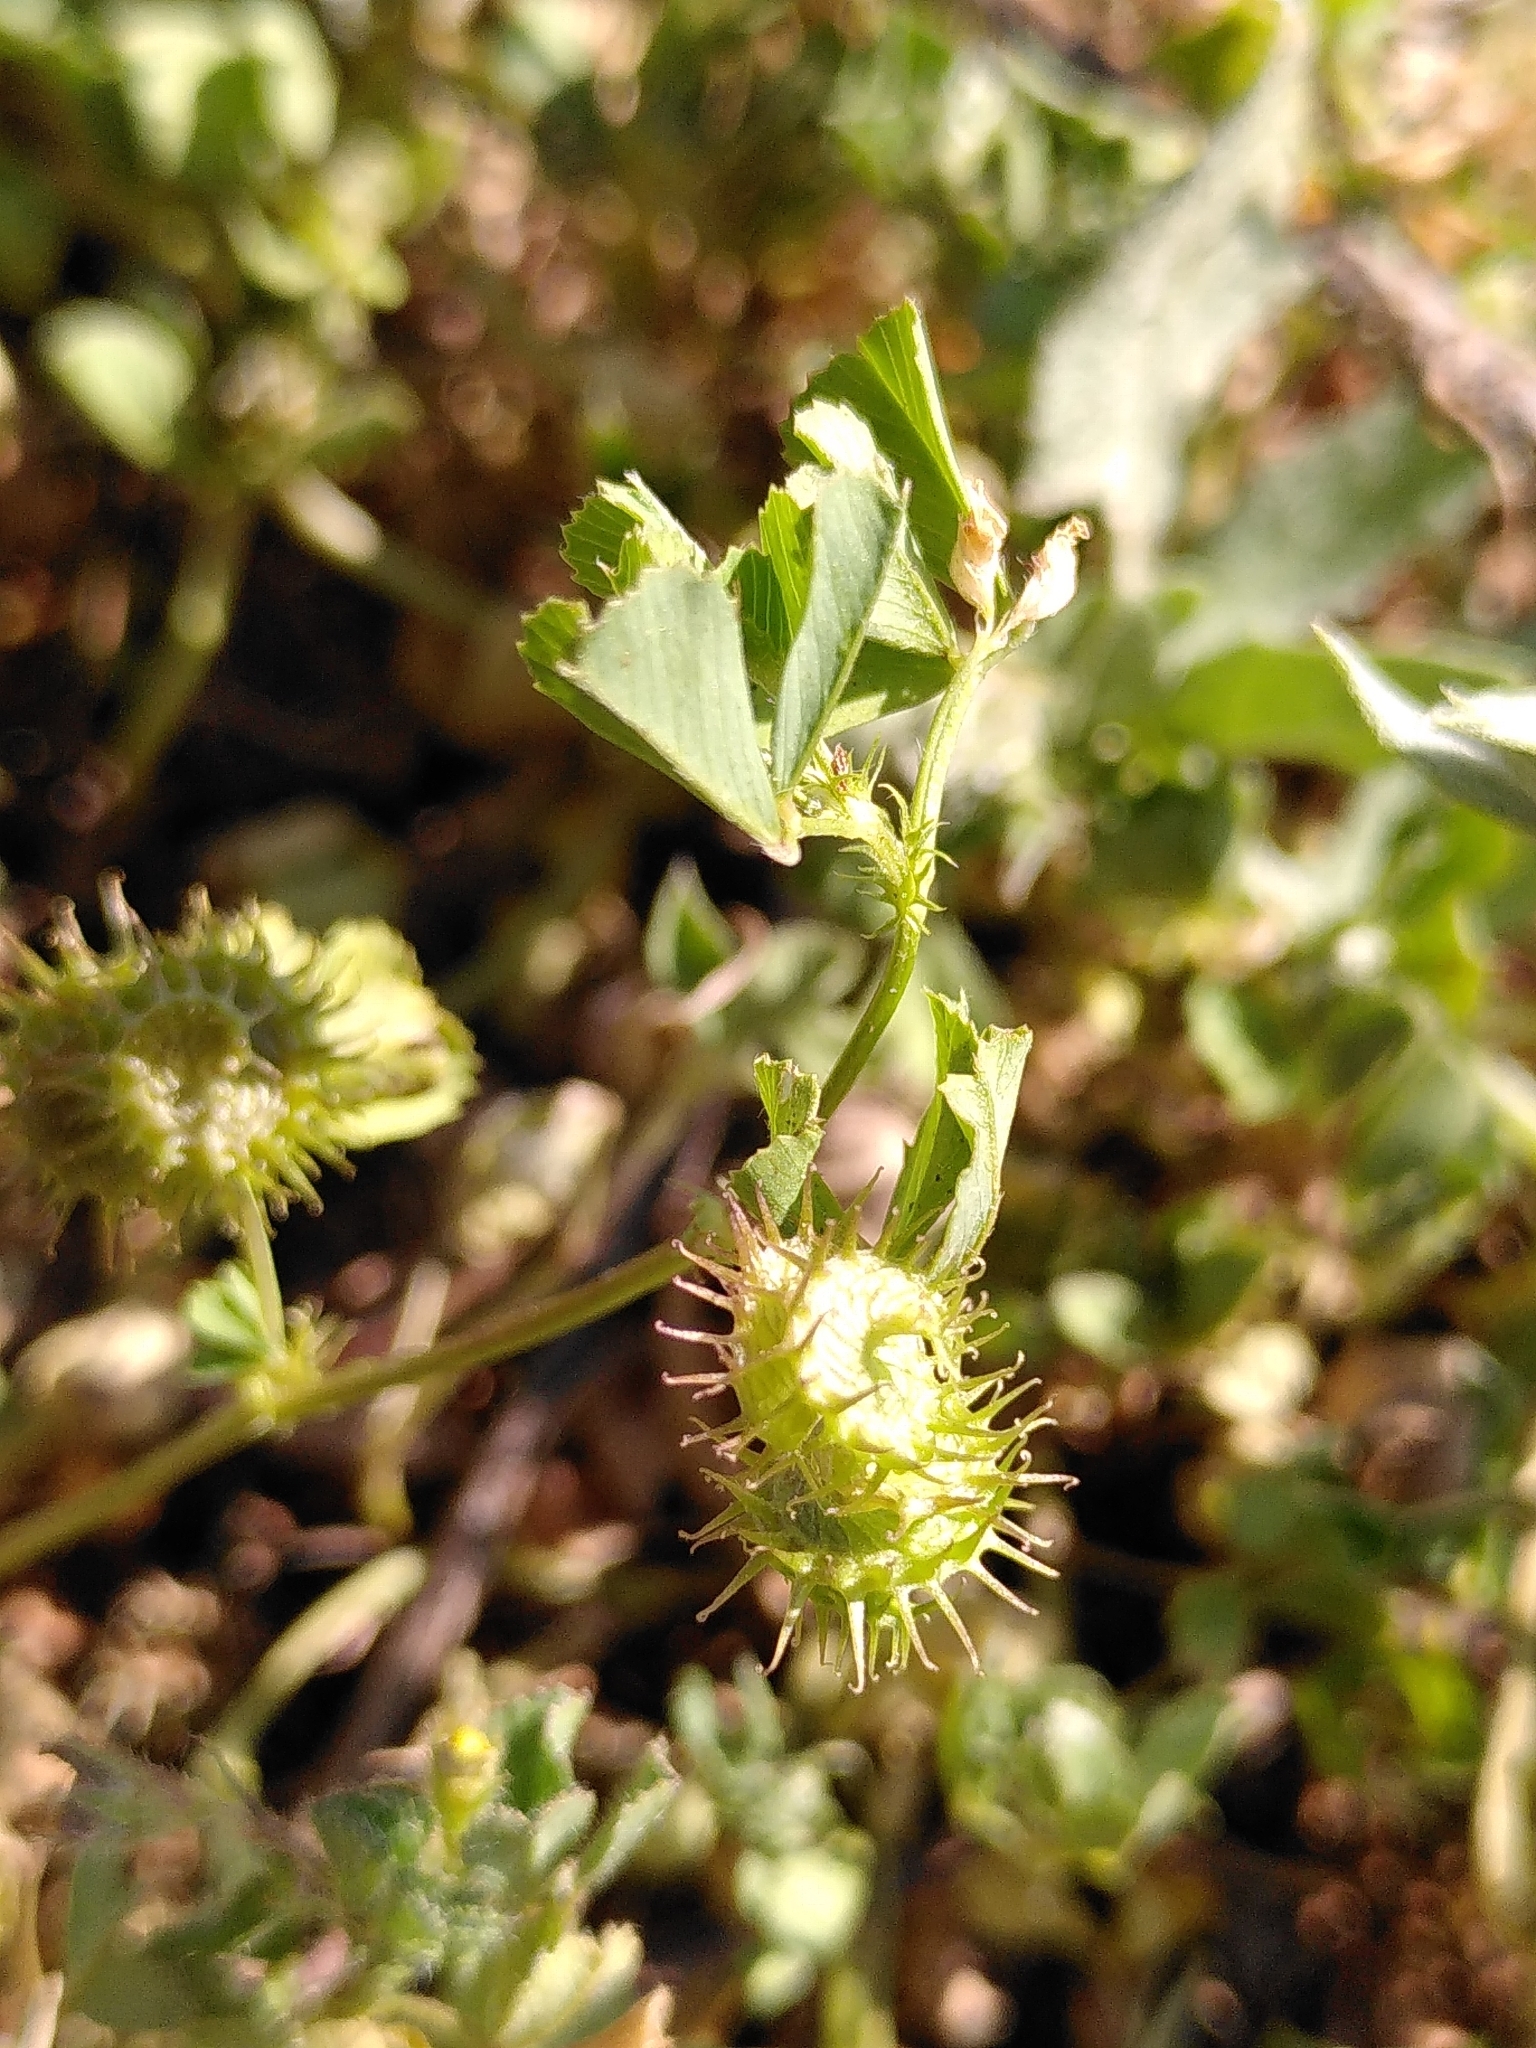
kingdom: Plantae
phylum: Tracheophyta
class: Magnoliopsida
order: Fabales
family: Fabaceae
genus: Medicago
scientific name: Medicago polymorpha
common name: Burclover
